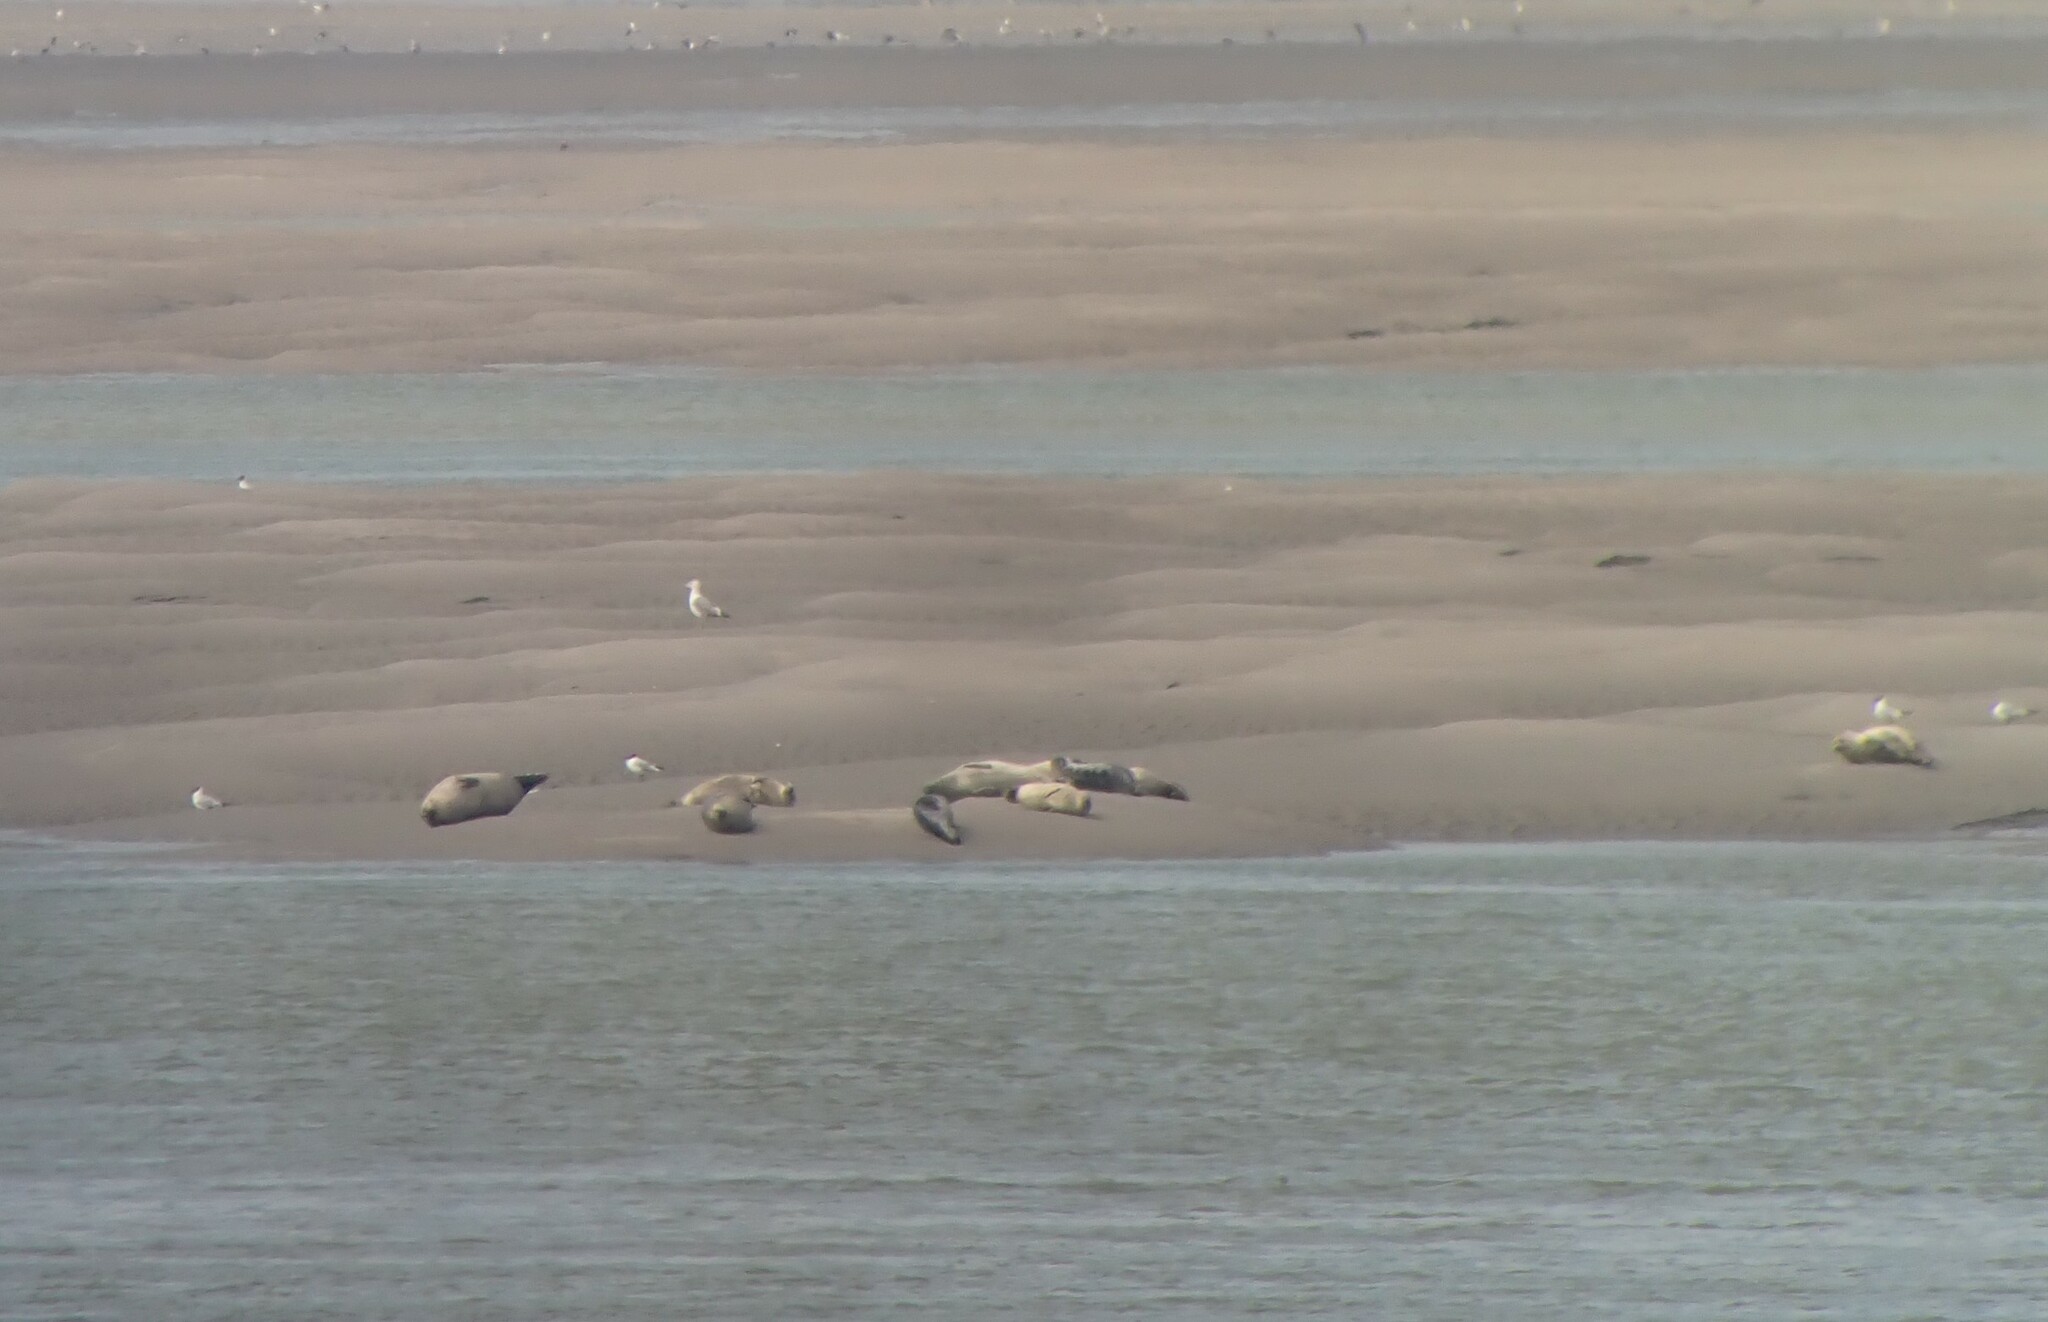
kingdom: Animalia
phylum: Chordata
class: Mammalia
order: Carnivora
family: Phocidae
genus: Phoca
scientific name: Phoca vitulina
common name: Harbor seal
